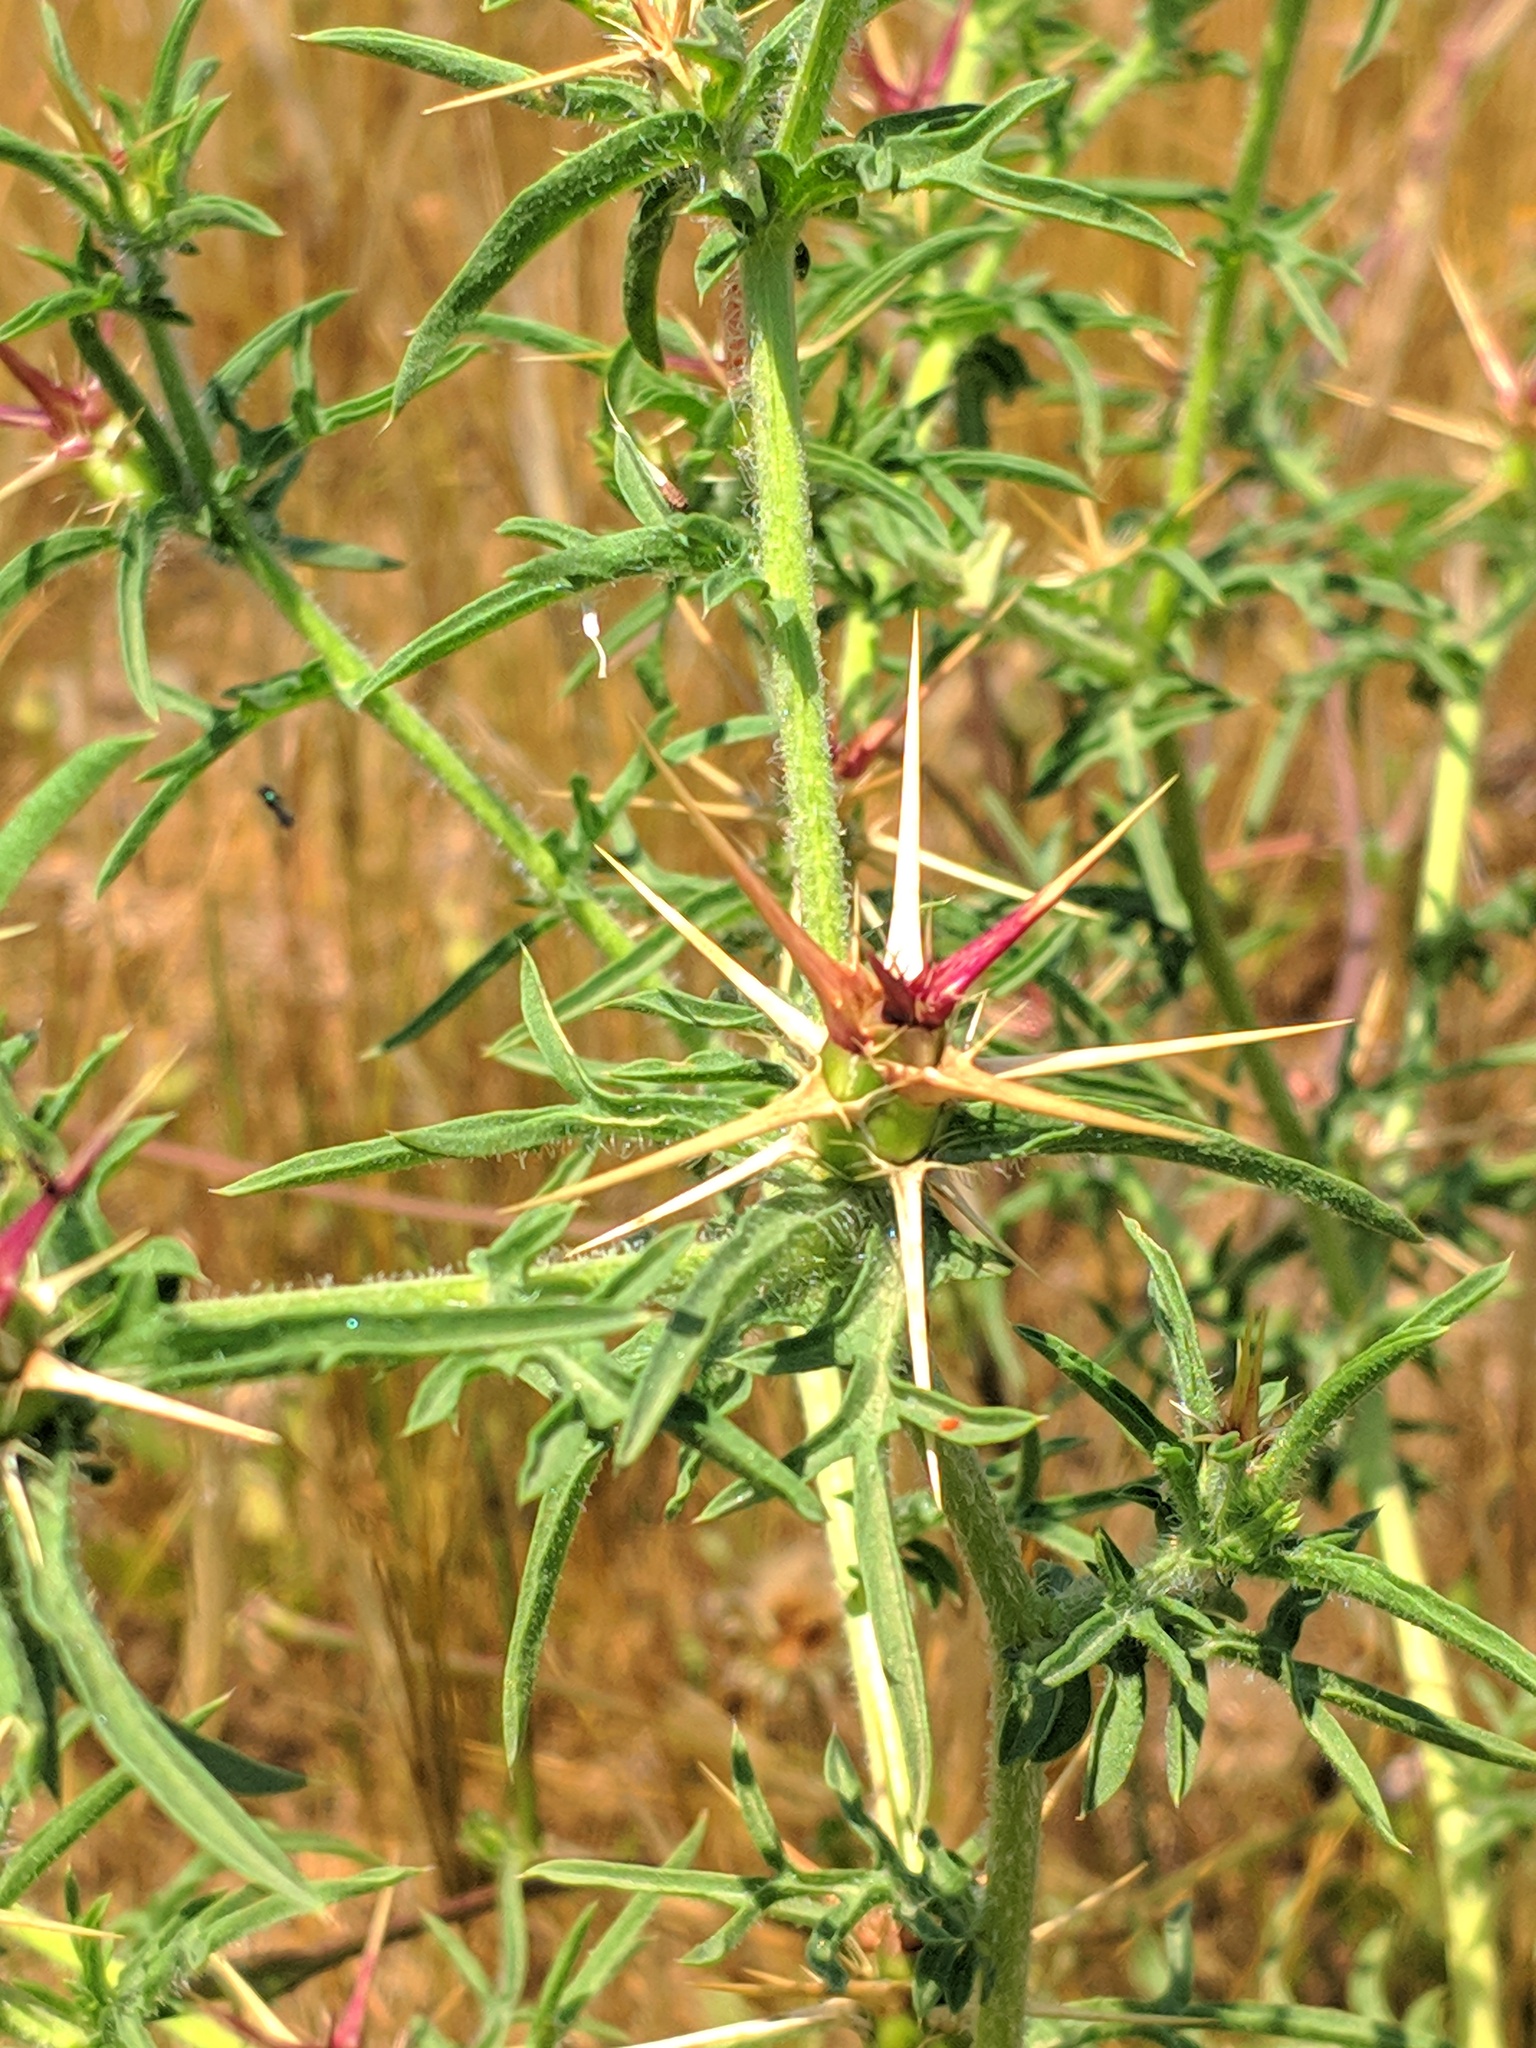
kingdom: Plantae
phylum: Tracheophyta
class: Magnoliopsida
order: Asterales
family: Asteraceae
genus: Centaurea
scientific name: Centaurea calcitrapa
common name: Red star-thistle
